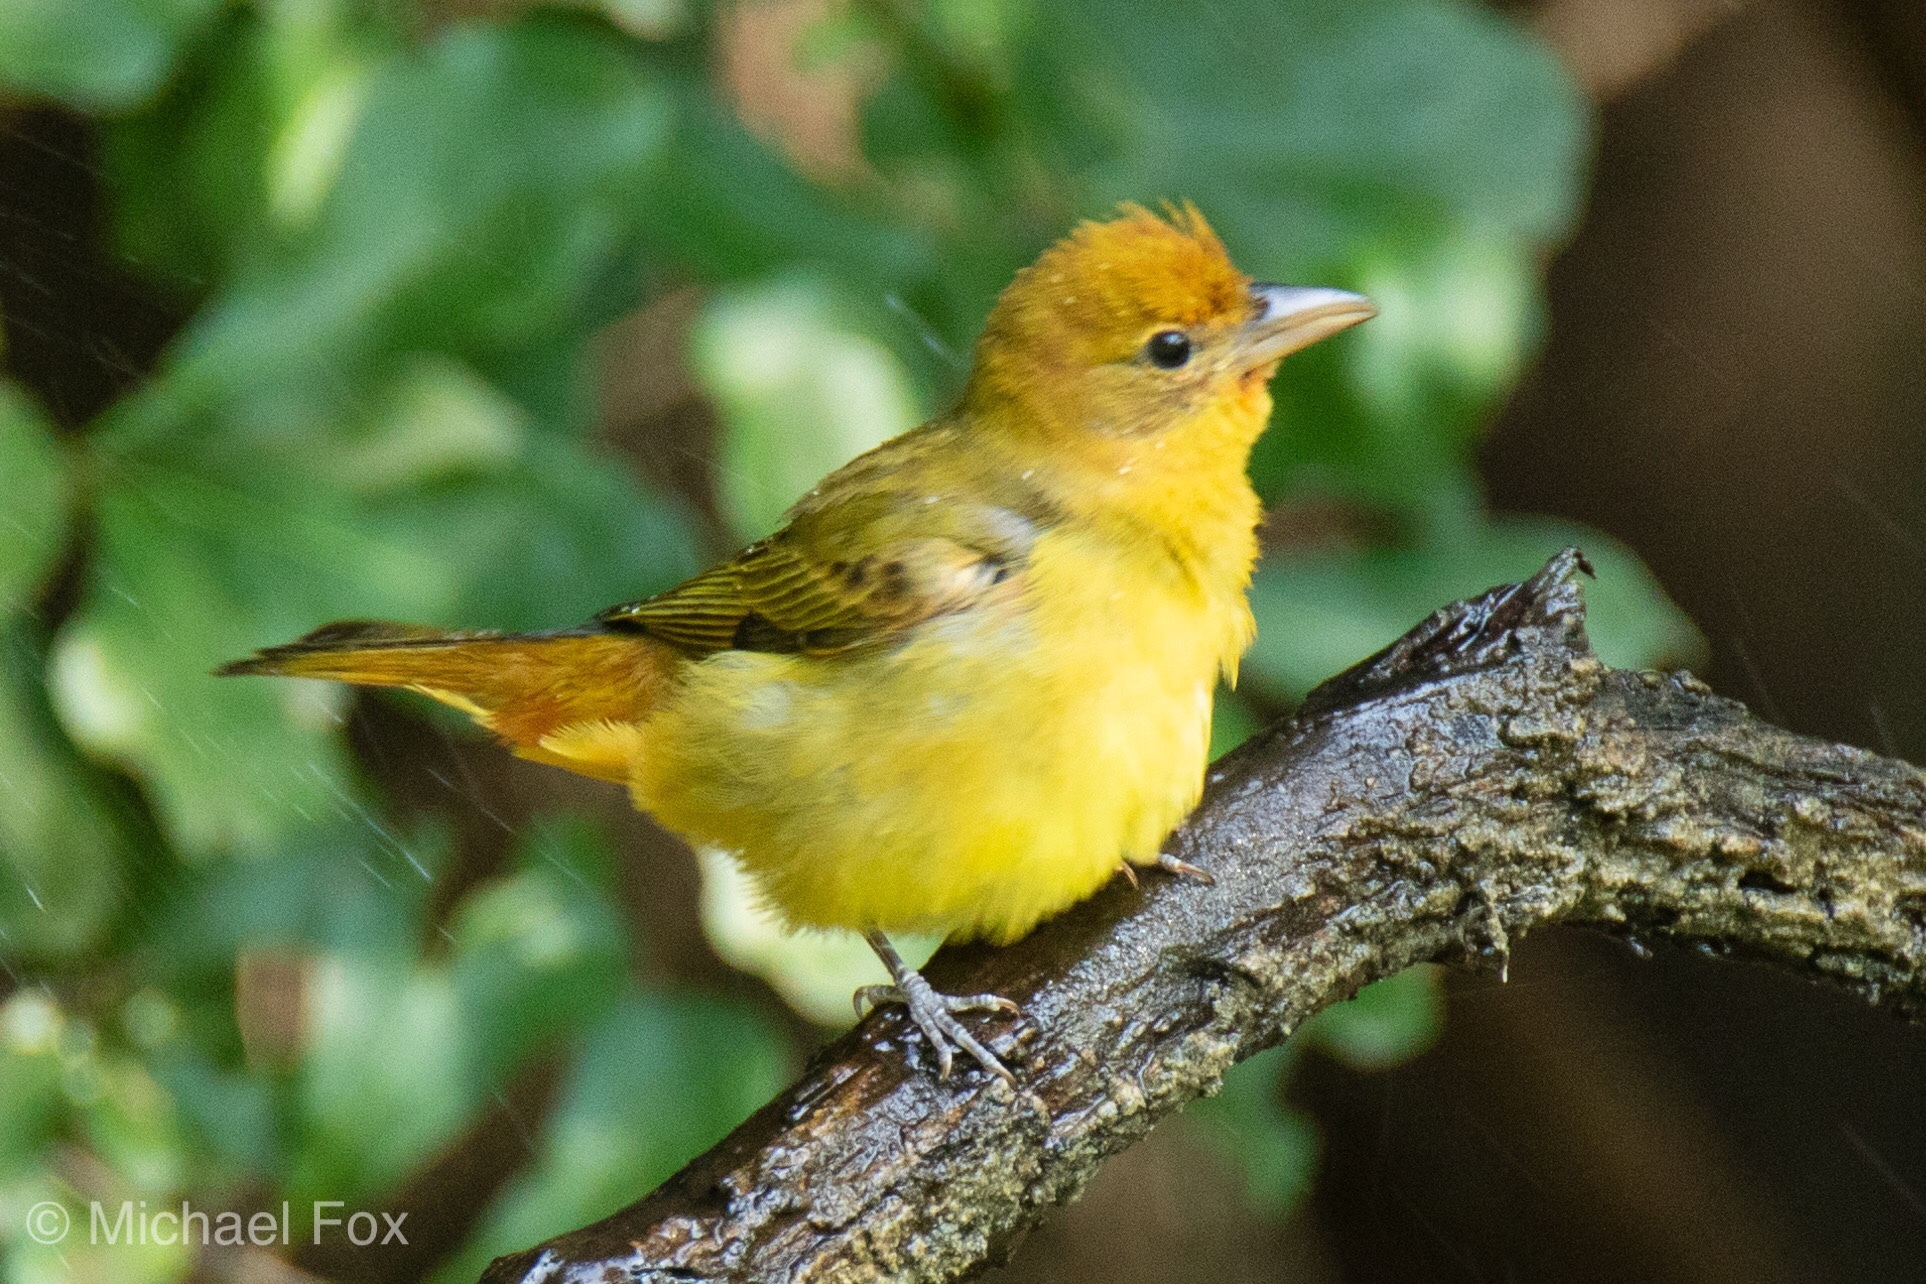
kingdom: Animalia
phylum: Chordata
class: Aves
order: Passeriformes
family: Cardinalidae
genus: Piranga
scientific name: Piranga rubra
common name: Summer tanager
